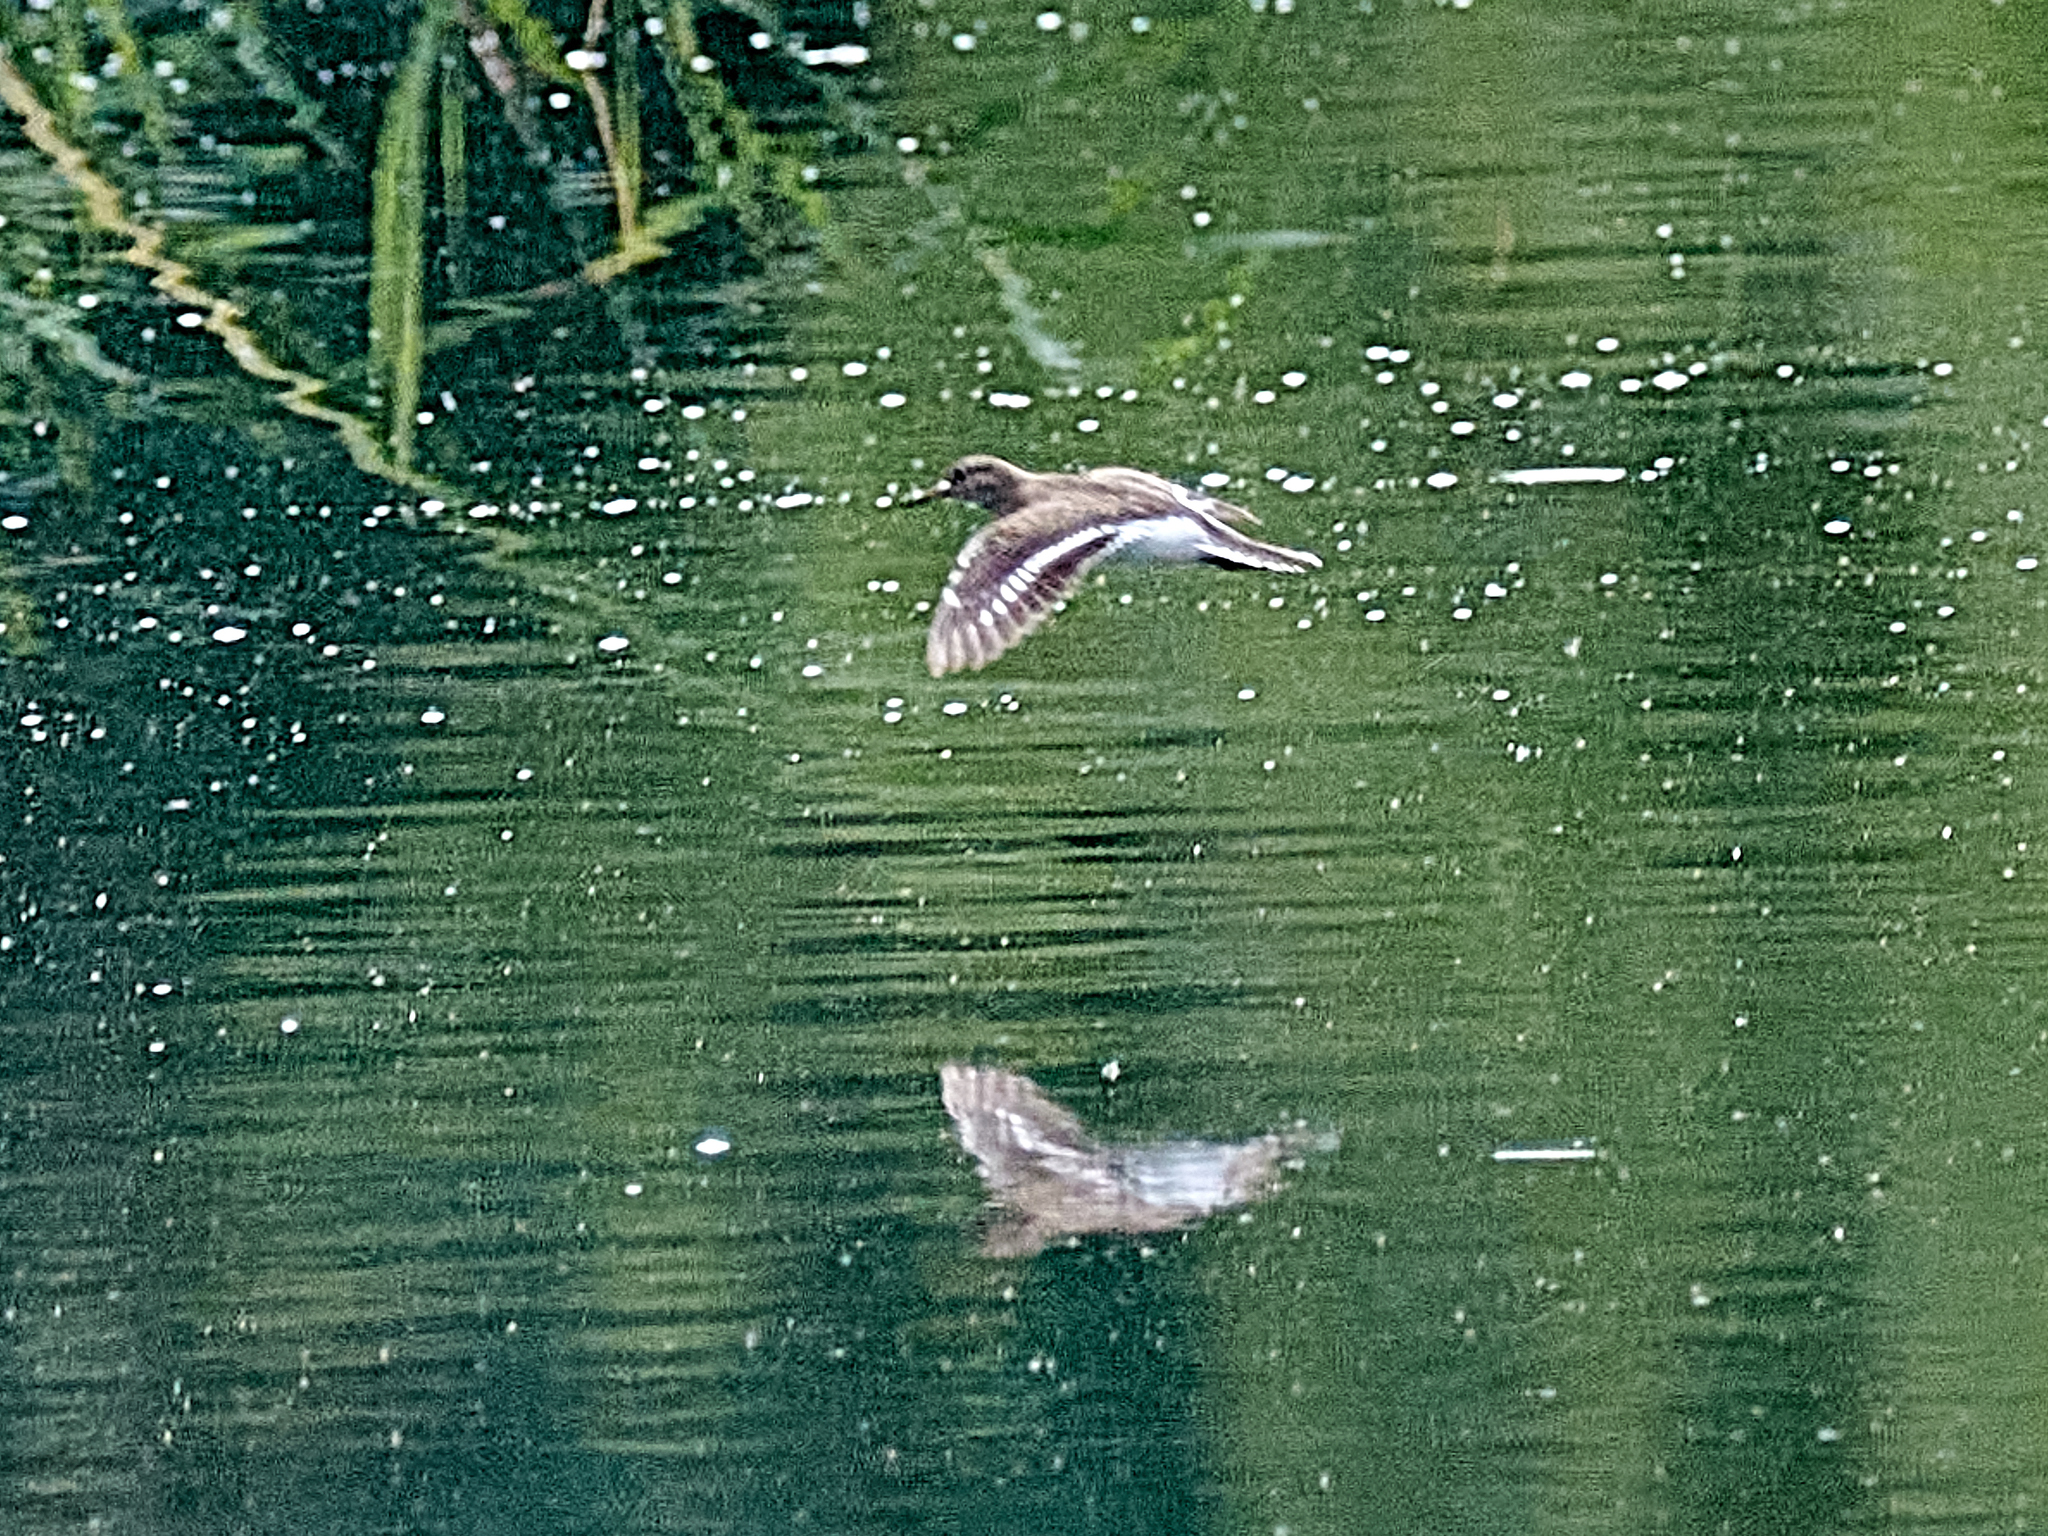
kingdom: Animalia
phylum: Chordata
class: Aves
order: Charadriiformes
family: Scolopacidae
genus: Actitis
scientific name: Actitis hypoleucos
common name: Common sandpiper
